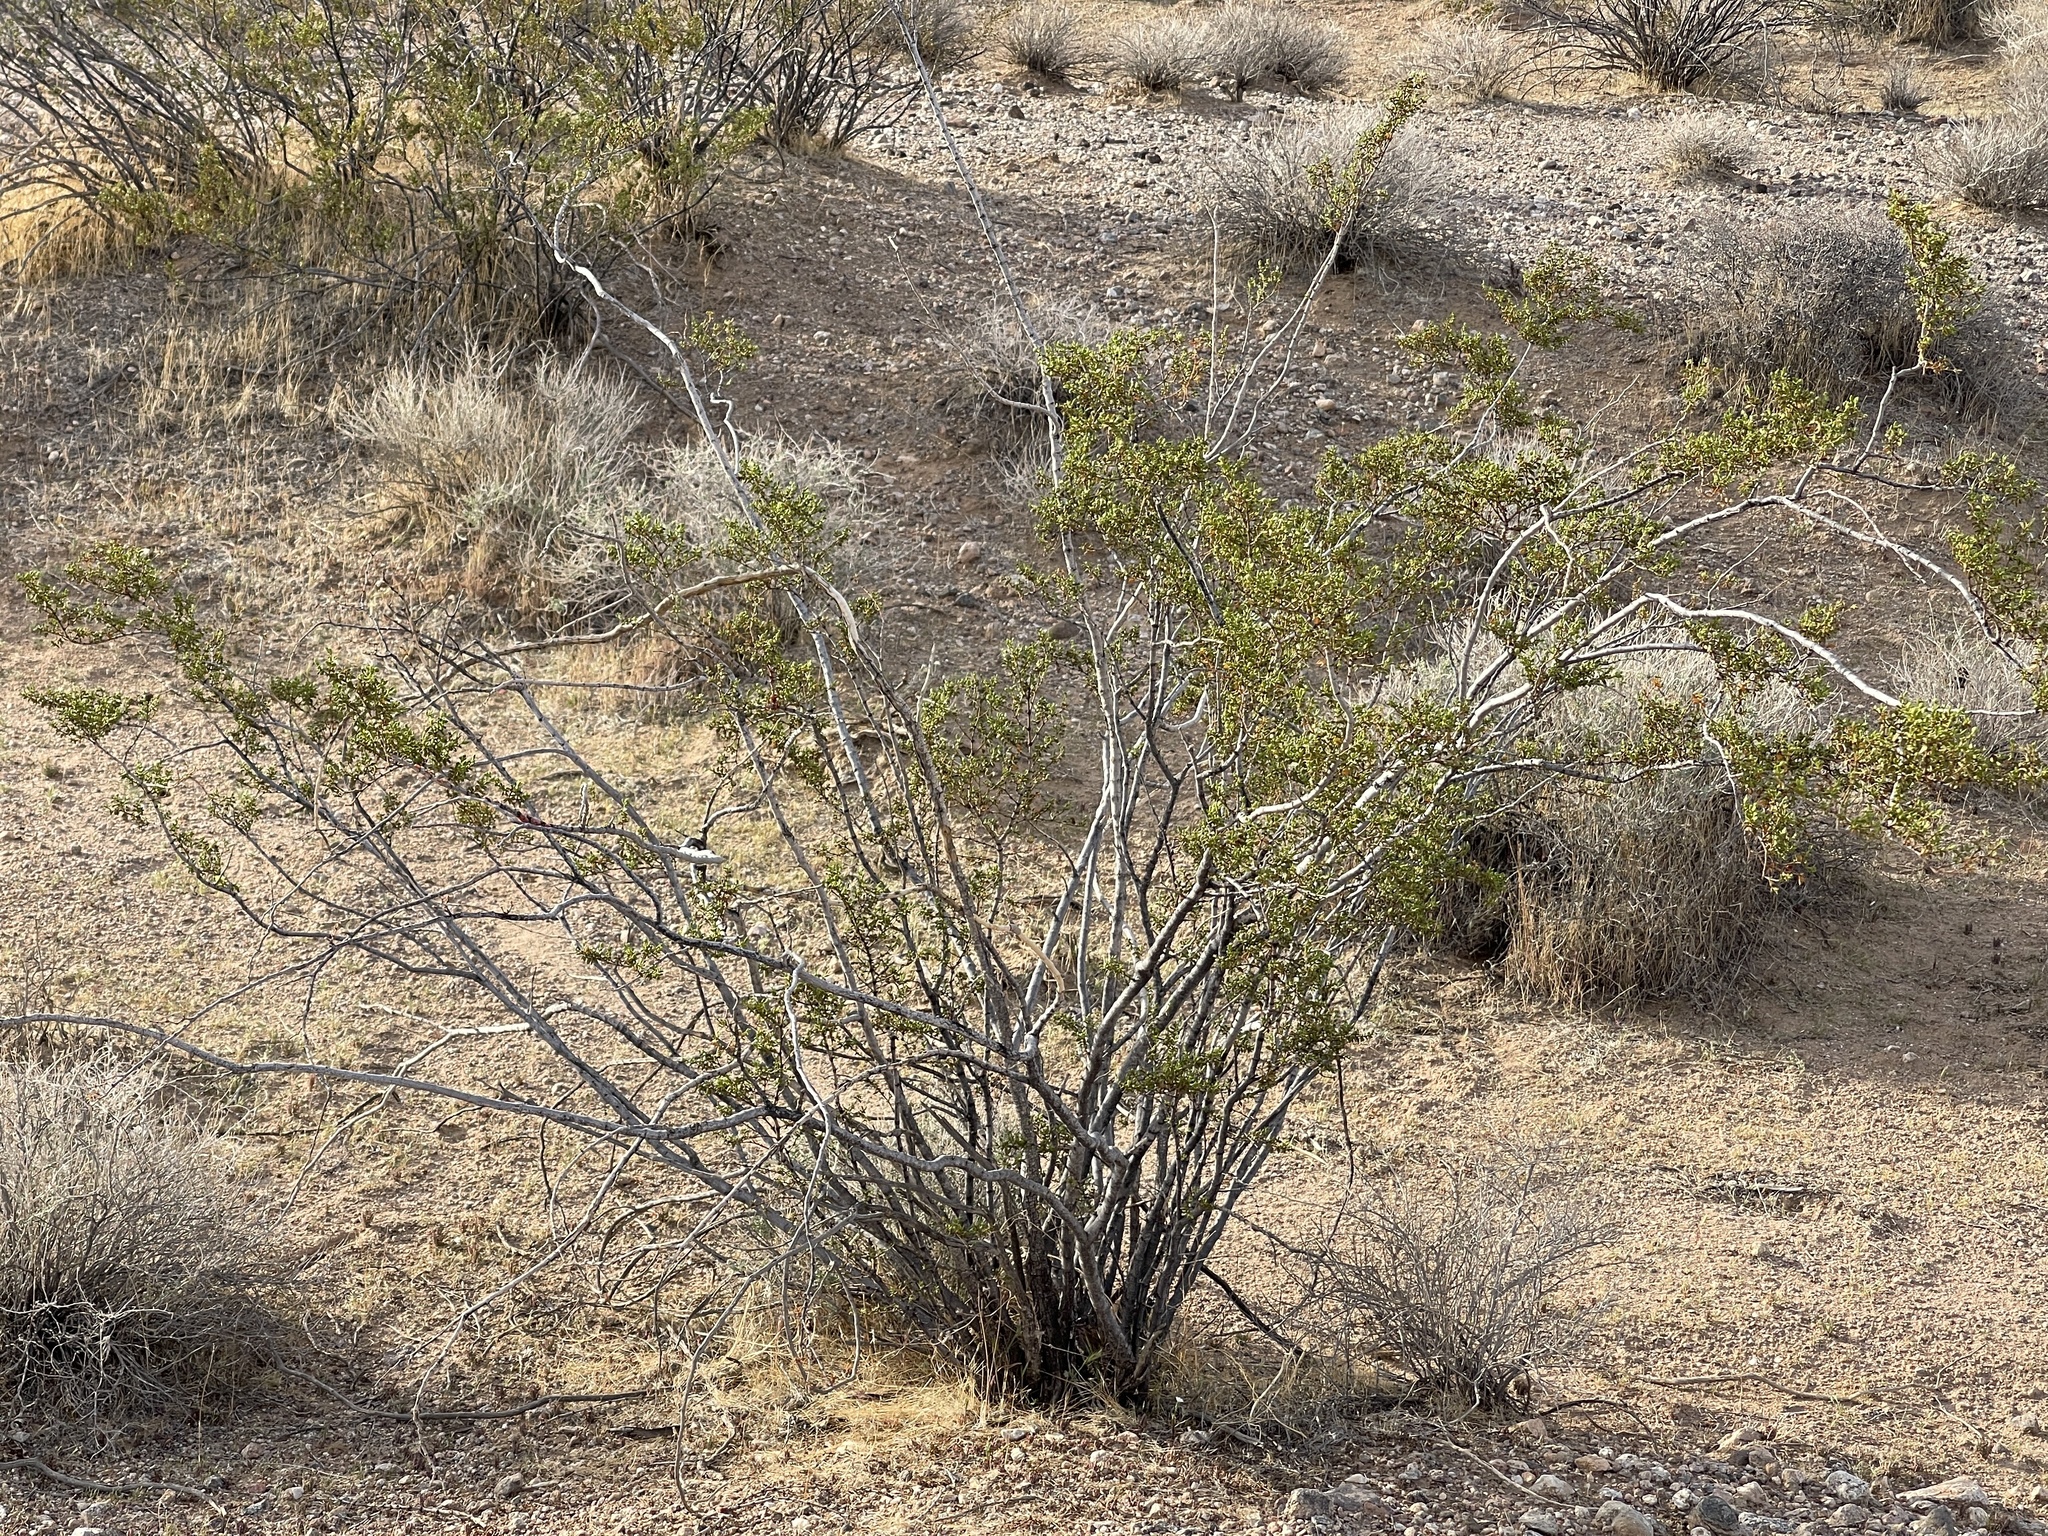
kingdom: Plantae
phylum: Tracheophyta
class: Magnoliopsida
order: Zygophyllales
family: Zygophyllaceae
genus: Larrea
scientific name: Larrea tridentata
